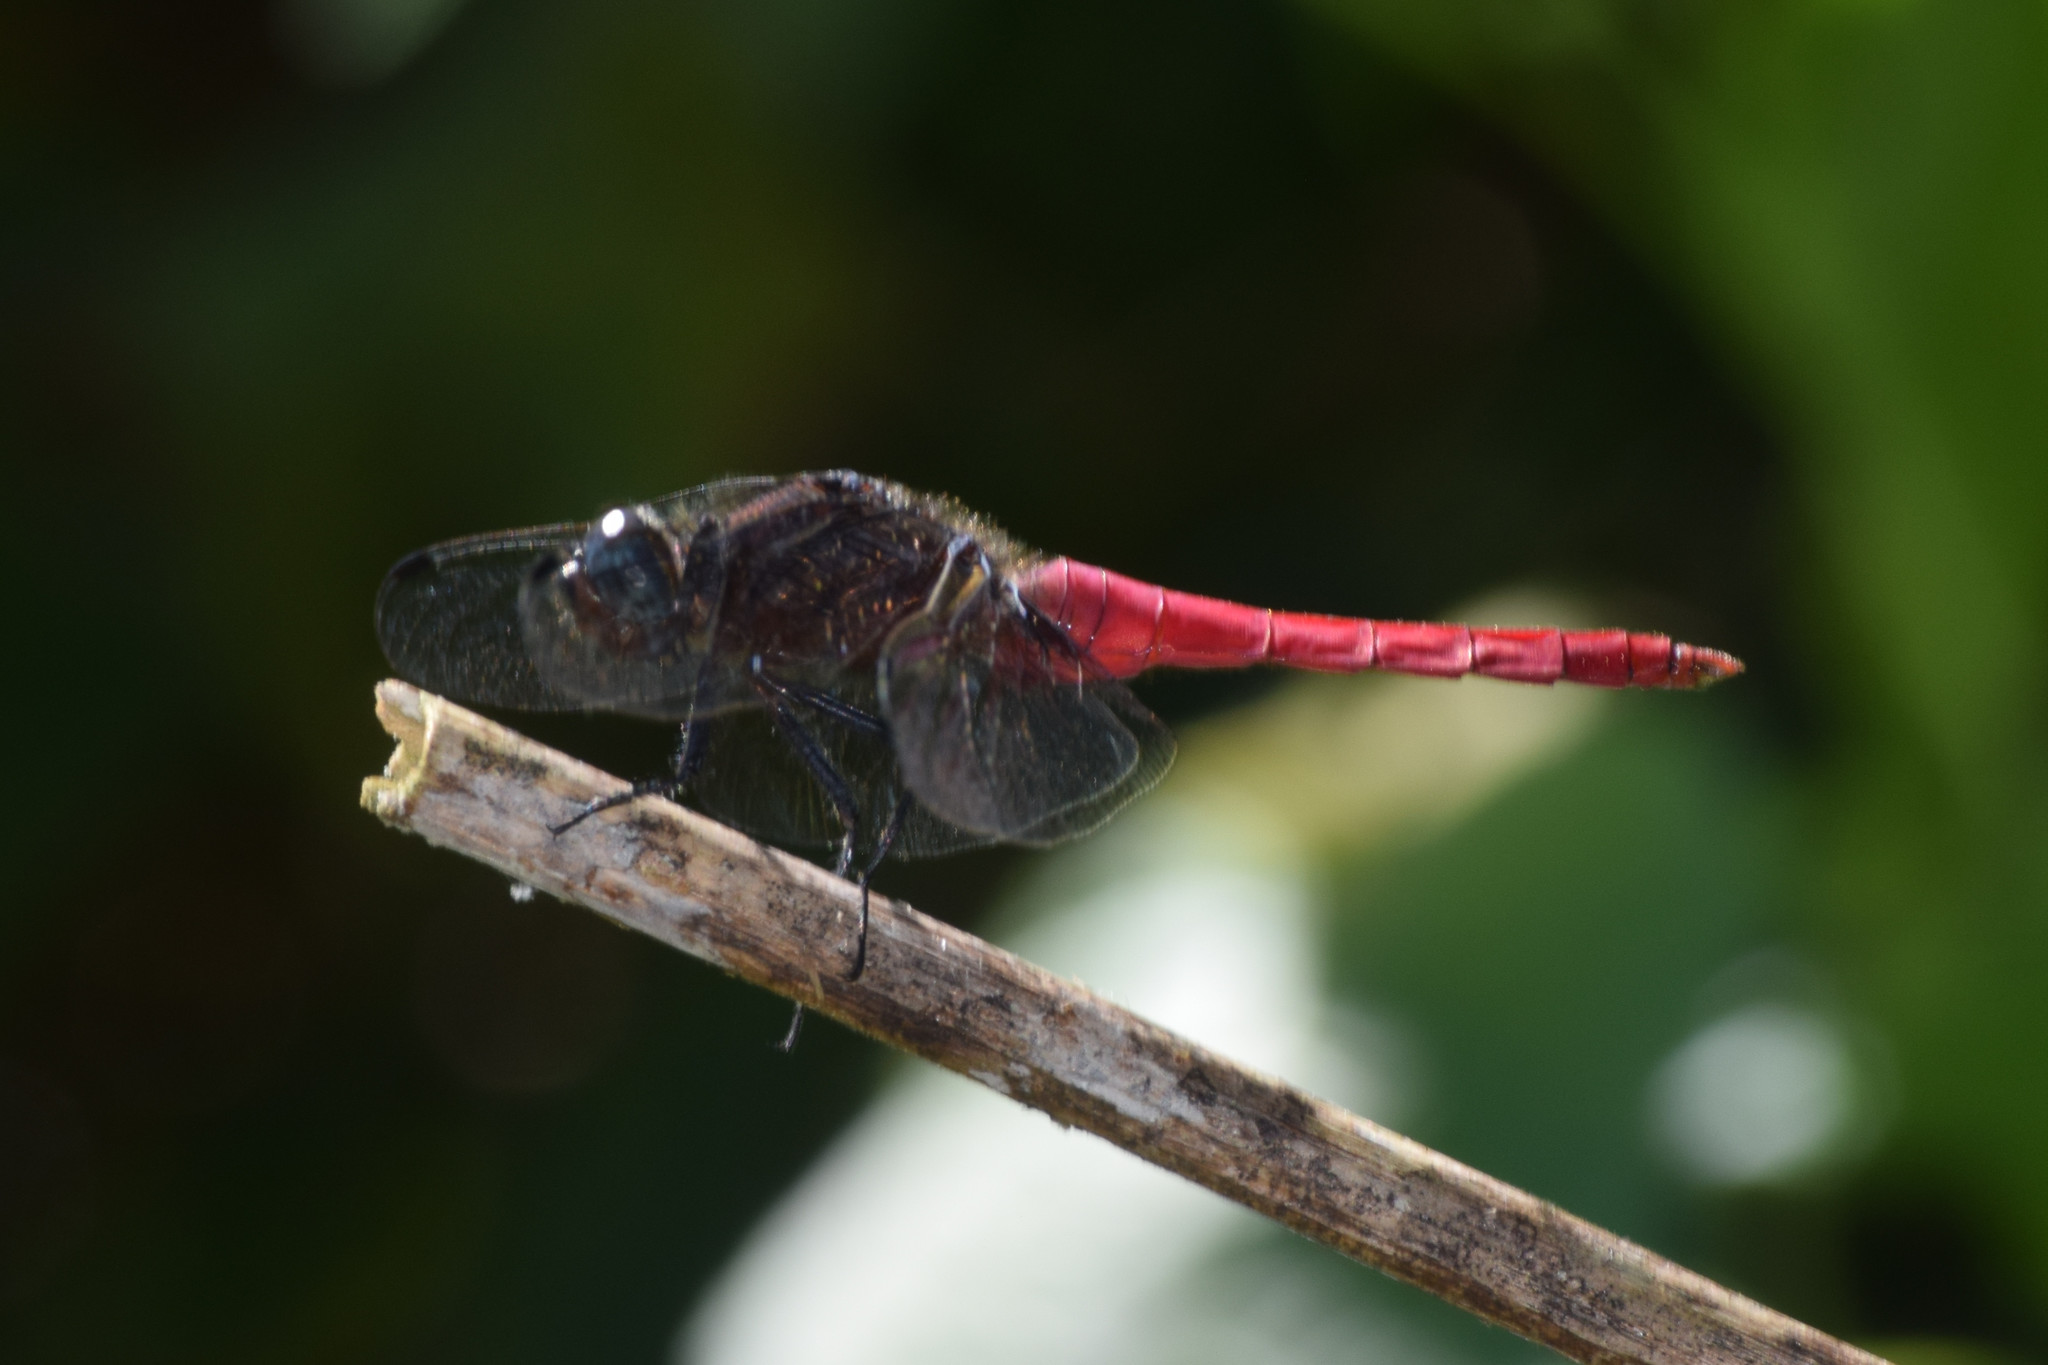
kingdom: Animalia
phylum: Arthropoda
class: Insecta
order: Odonata
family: Libellulidae
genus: Orthetrum
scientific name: Orthetrum chrysis
